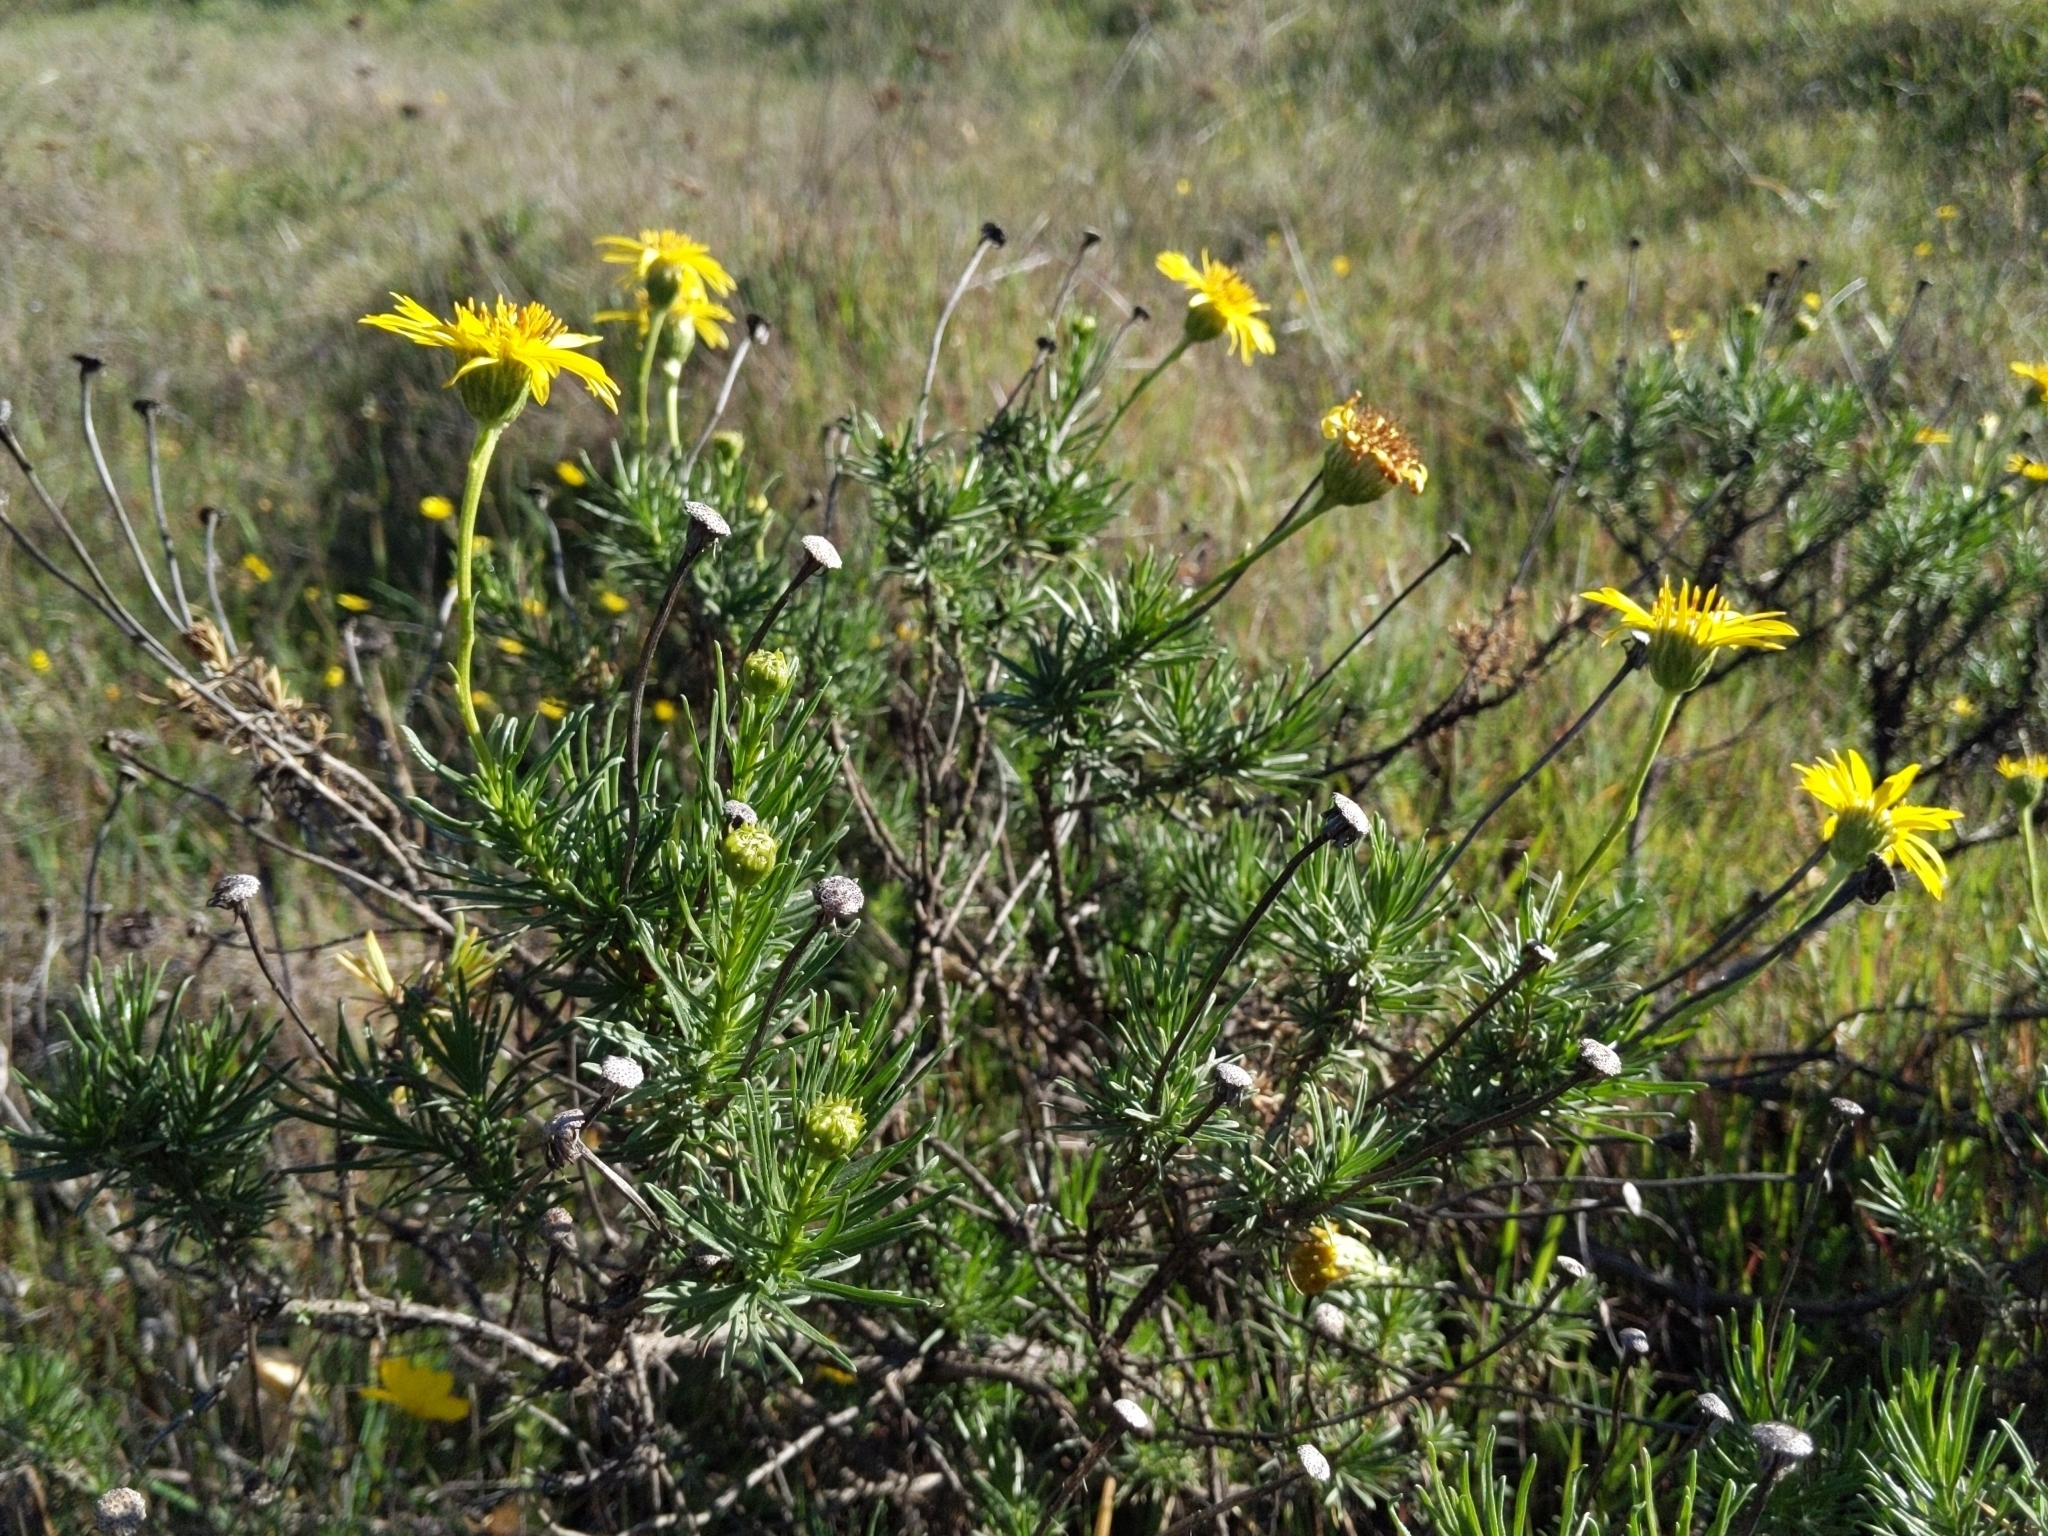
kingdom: Plantae
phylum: Tracheophyta
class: Magnoliopsida
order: Asterales
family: Asteraceae
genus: Ericameria
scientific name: Ericameria linearifolia
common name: Interior goldenbush
